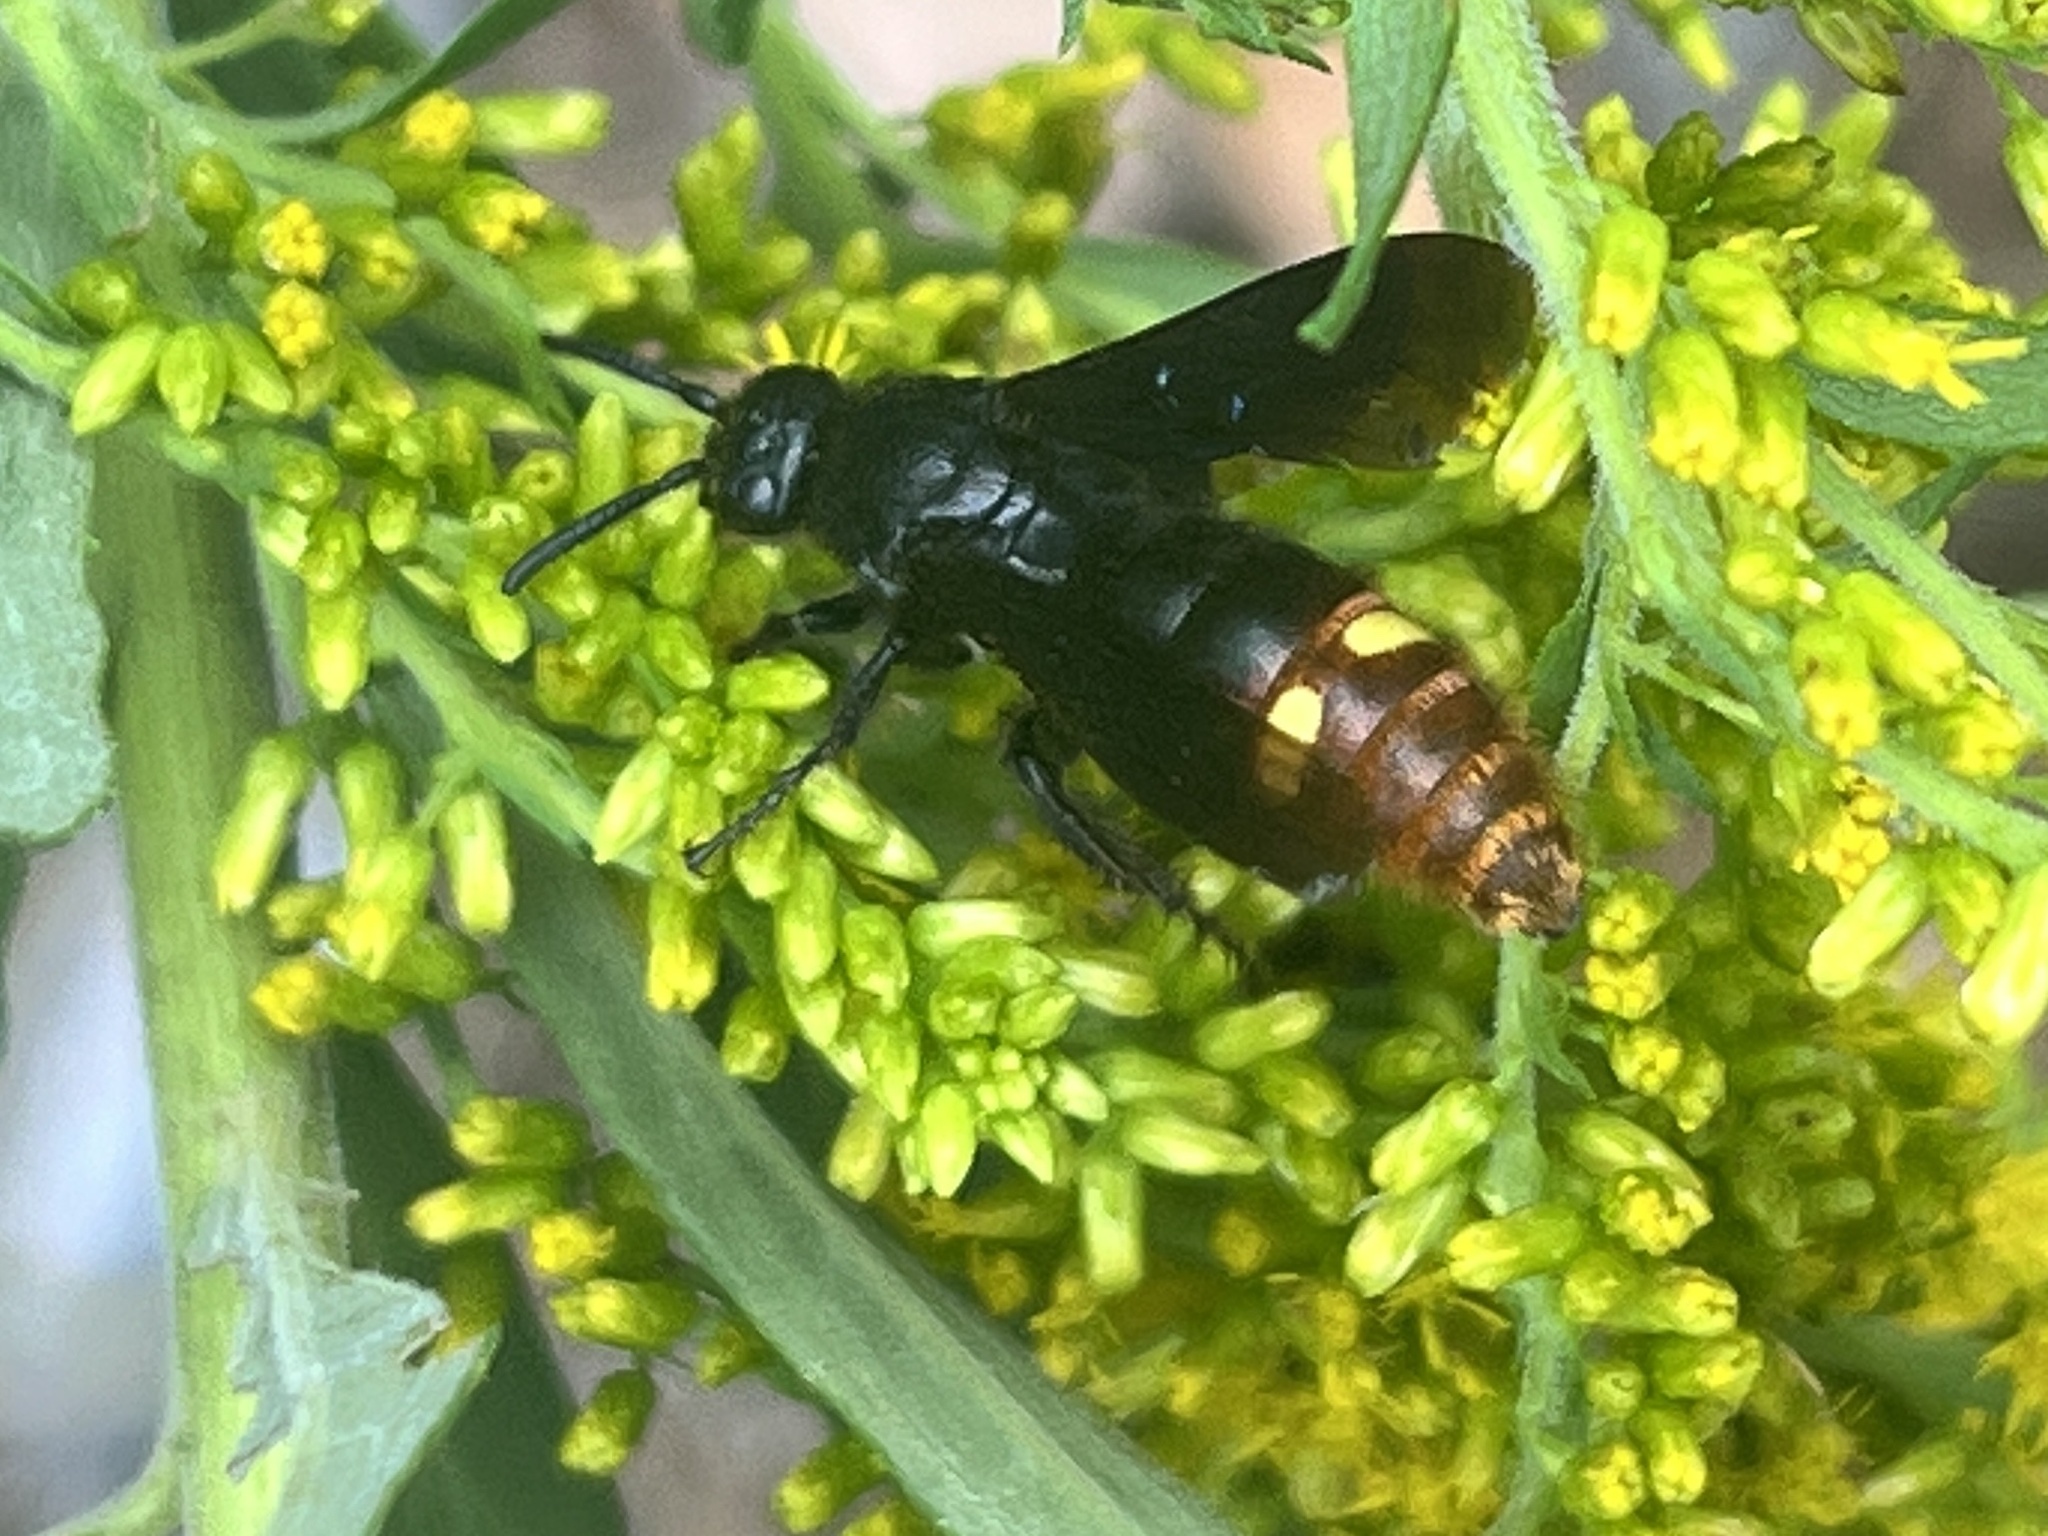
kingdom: Animalia
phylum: Arthropoda
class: Insecta
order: Hymenoptera
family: Scoliidae
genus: Scolia
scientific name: Scolia dubia
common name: Blue-winged scoliid wasp
